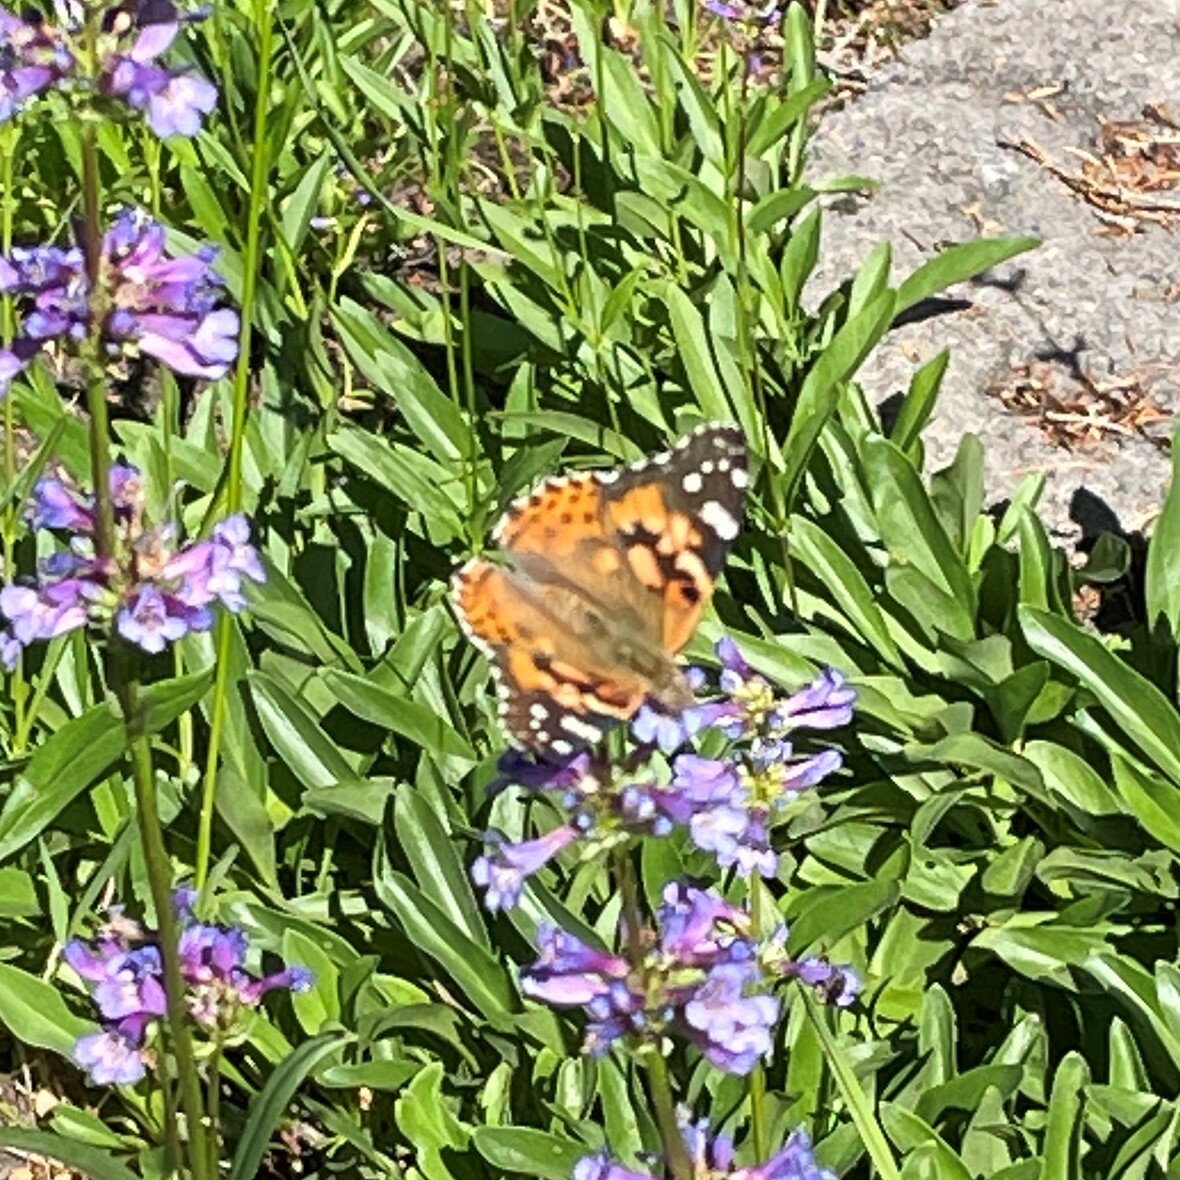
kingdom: Animalia
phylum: Arthropoda
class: Insecta
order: Lepidoptera
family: Nymphalidae
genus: Vanessa
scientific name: Vanessa cardui
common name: Painted lady
